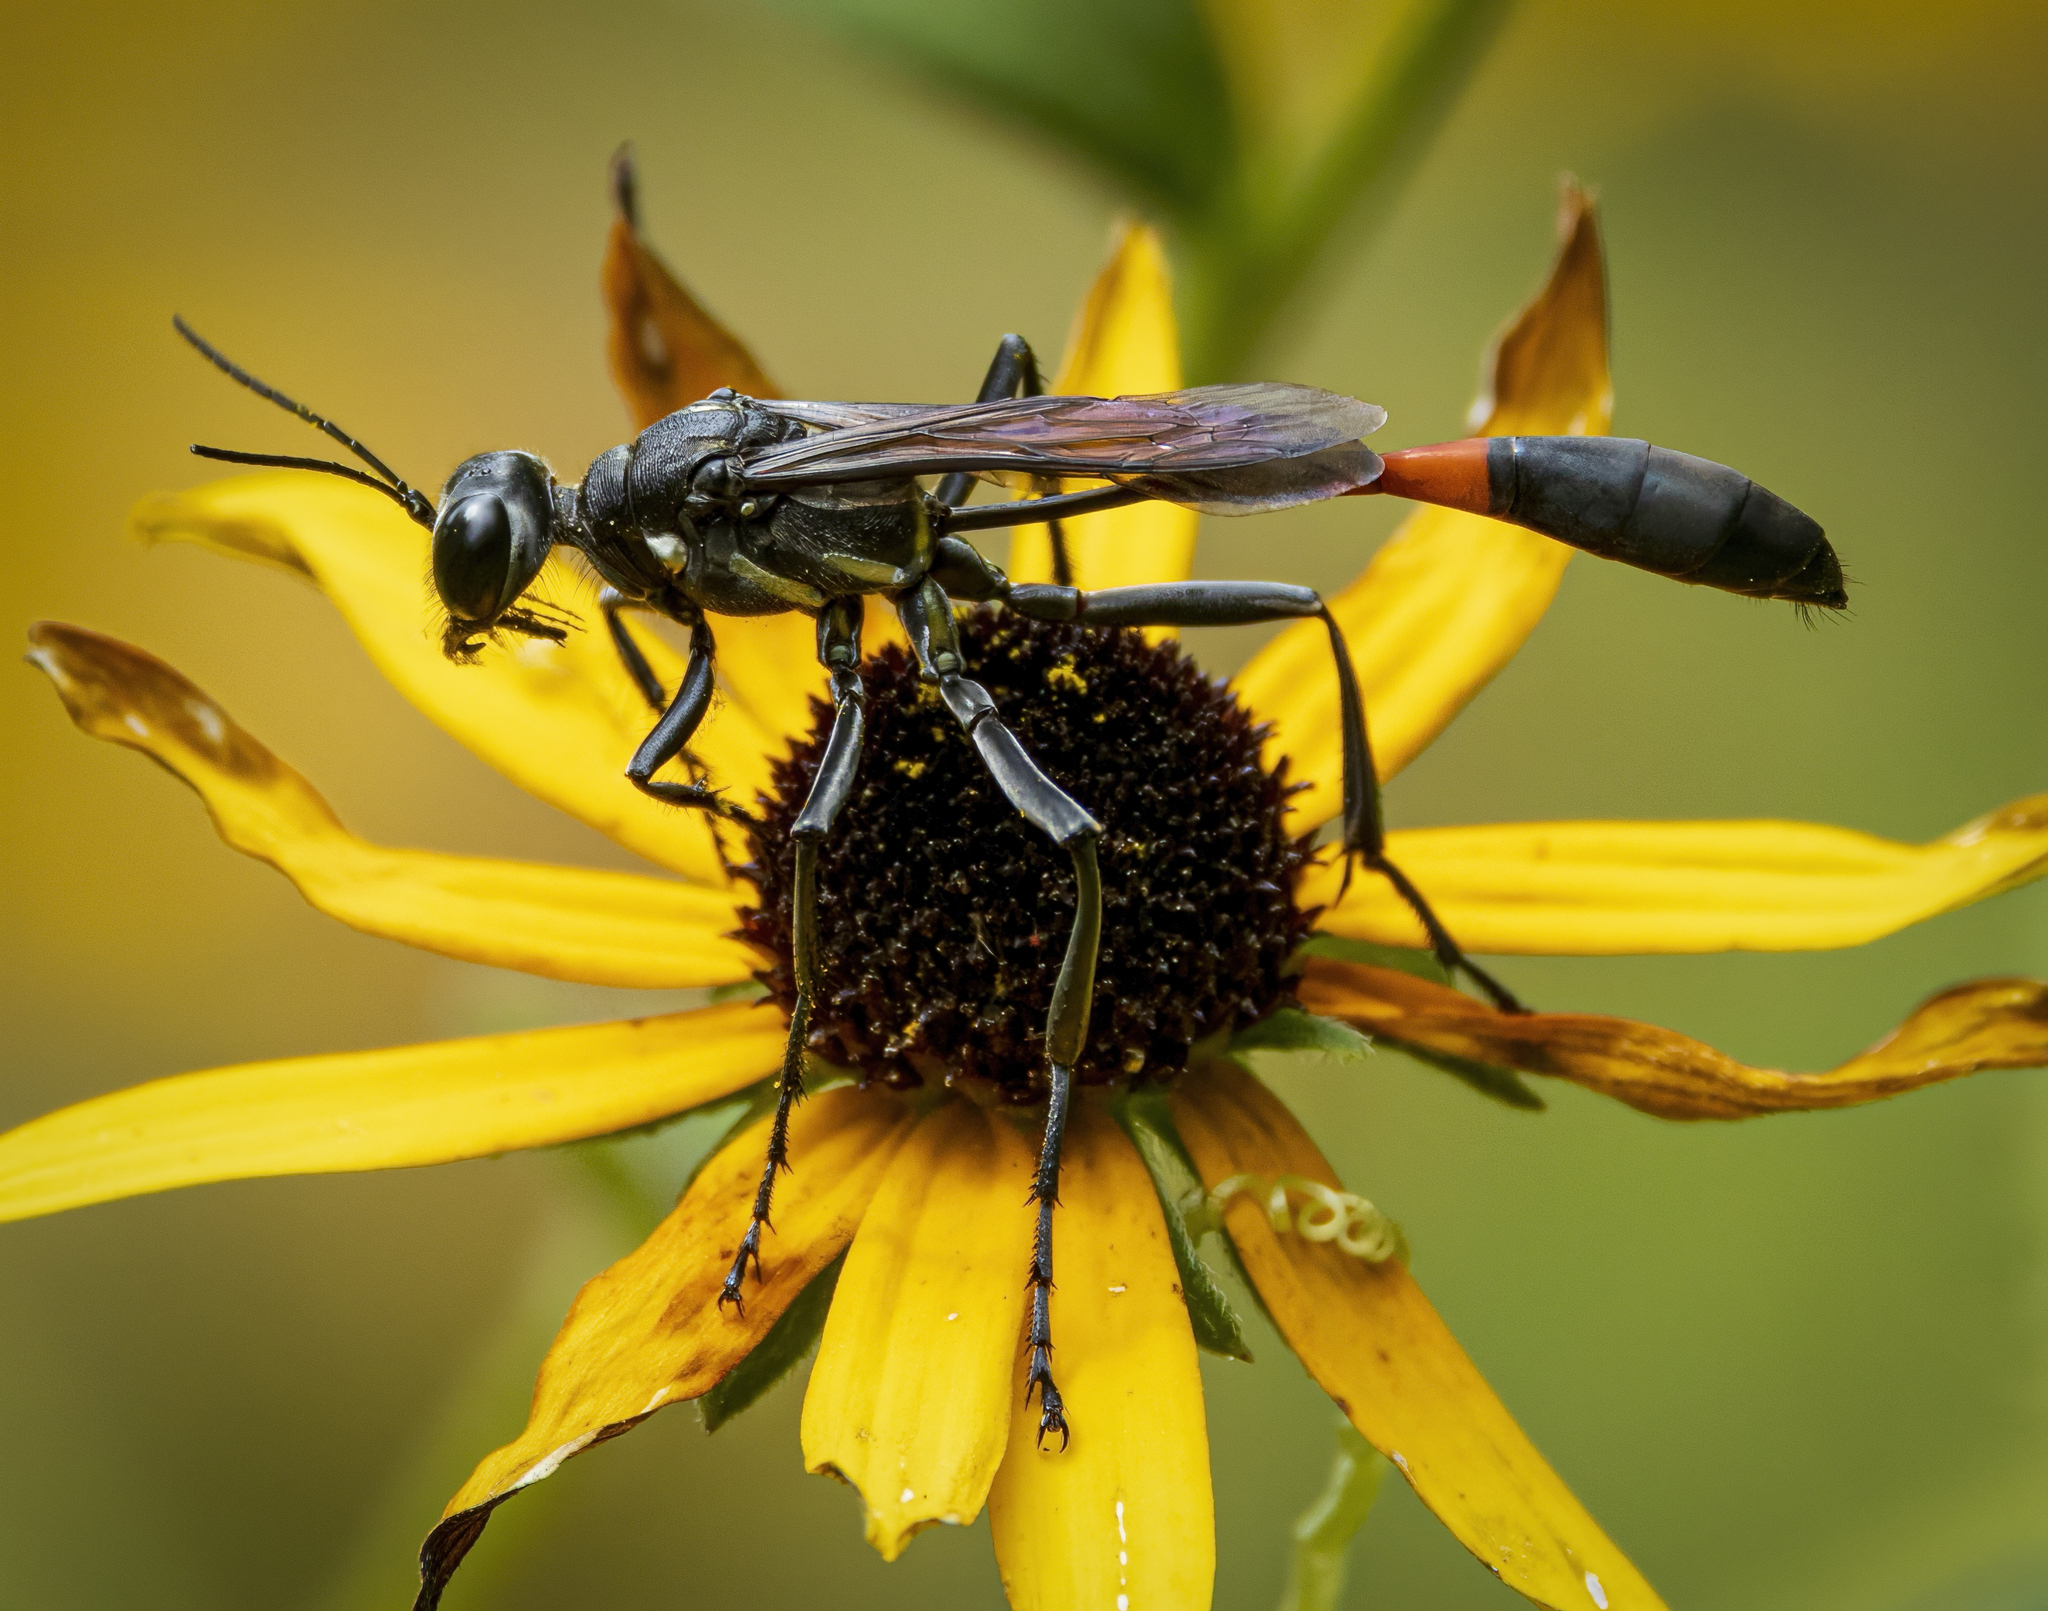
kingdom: Animalia
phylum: Arthropoda
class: Insecta
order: Hymenoptera
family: Sphecidae
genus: Ammophila
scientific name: Ammophila procera
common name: Common thread-waisted wasp
